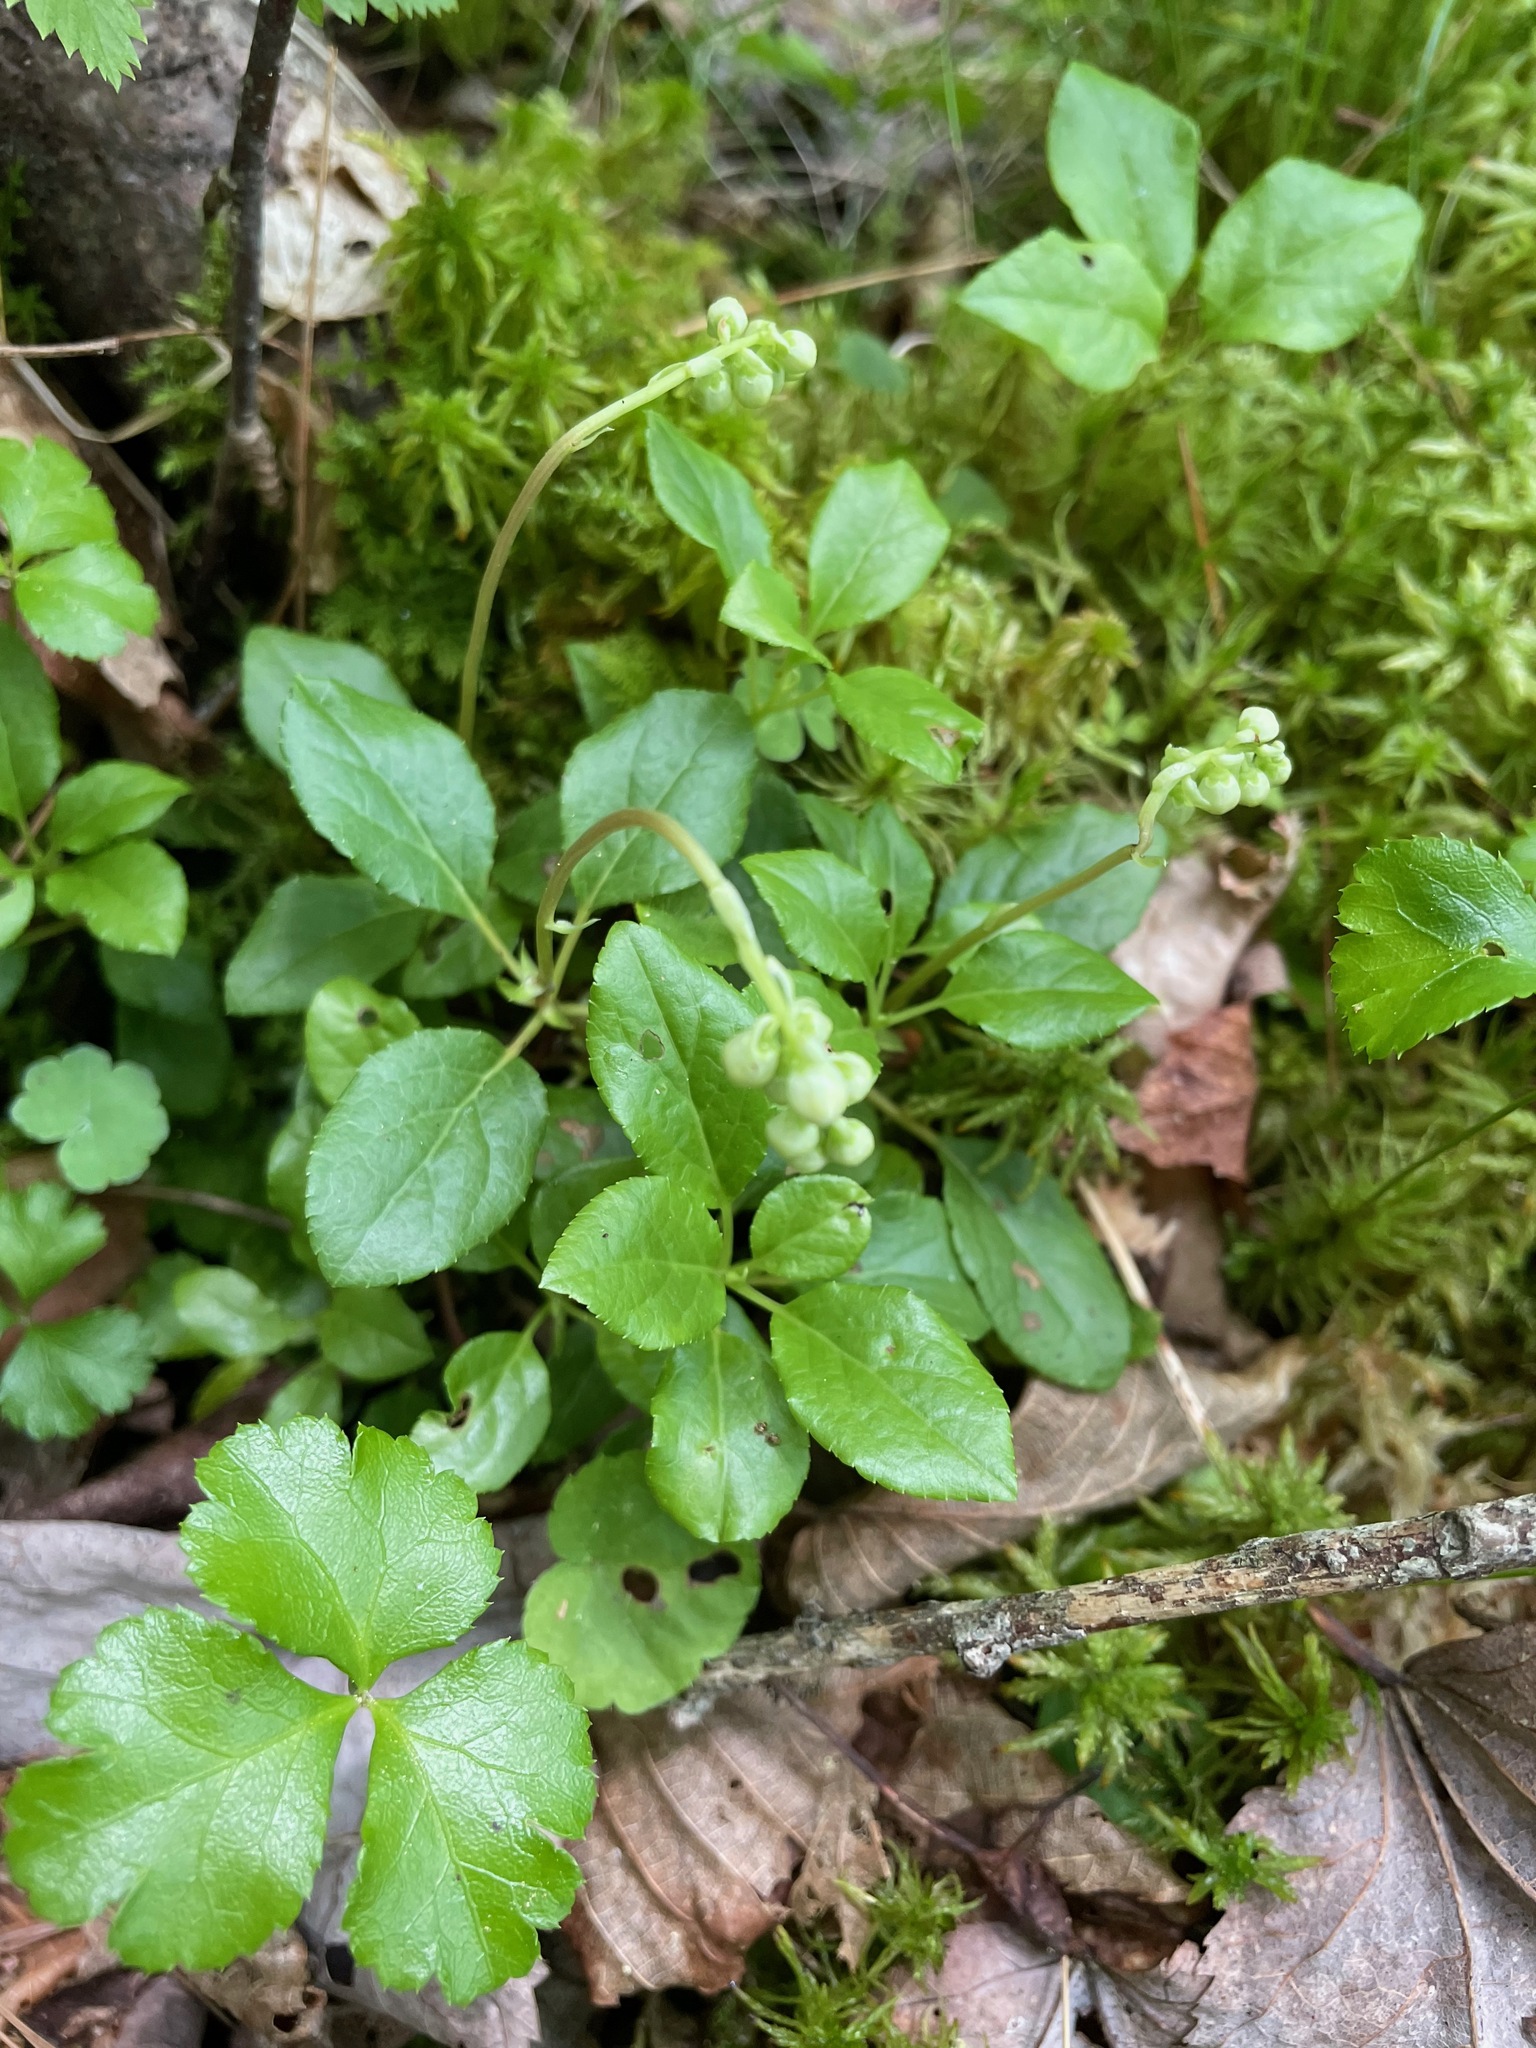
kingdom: Plantae
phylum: Tracheophyta
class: Magnoliopsida
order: Ericales
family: Ericaceae
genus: Orthilia
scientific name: Orthilia secunda
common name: One-sided orthilia
